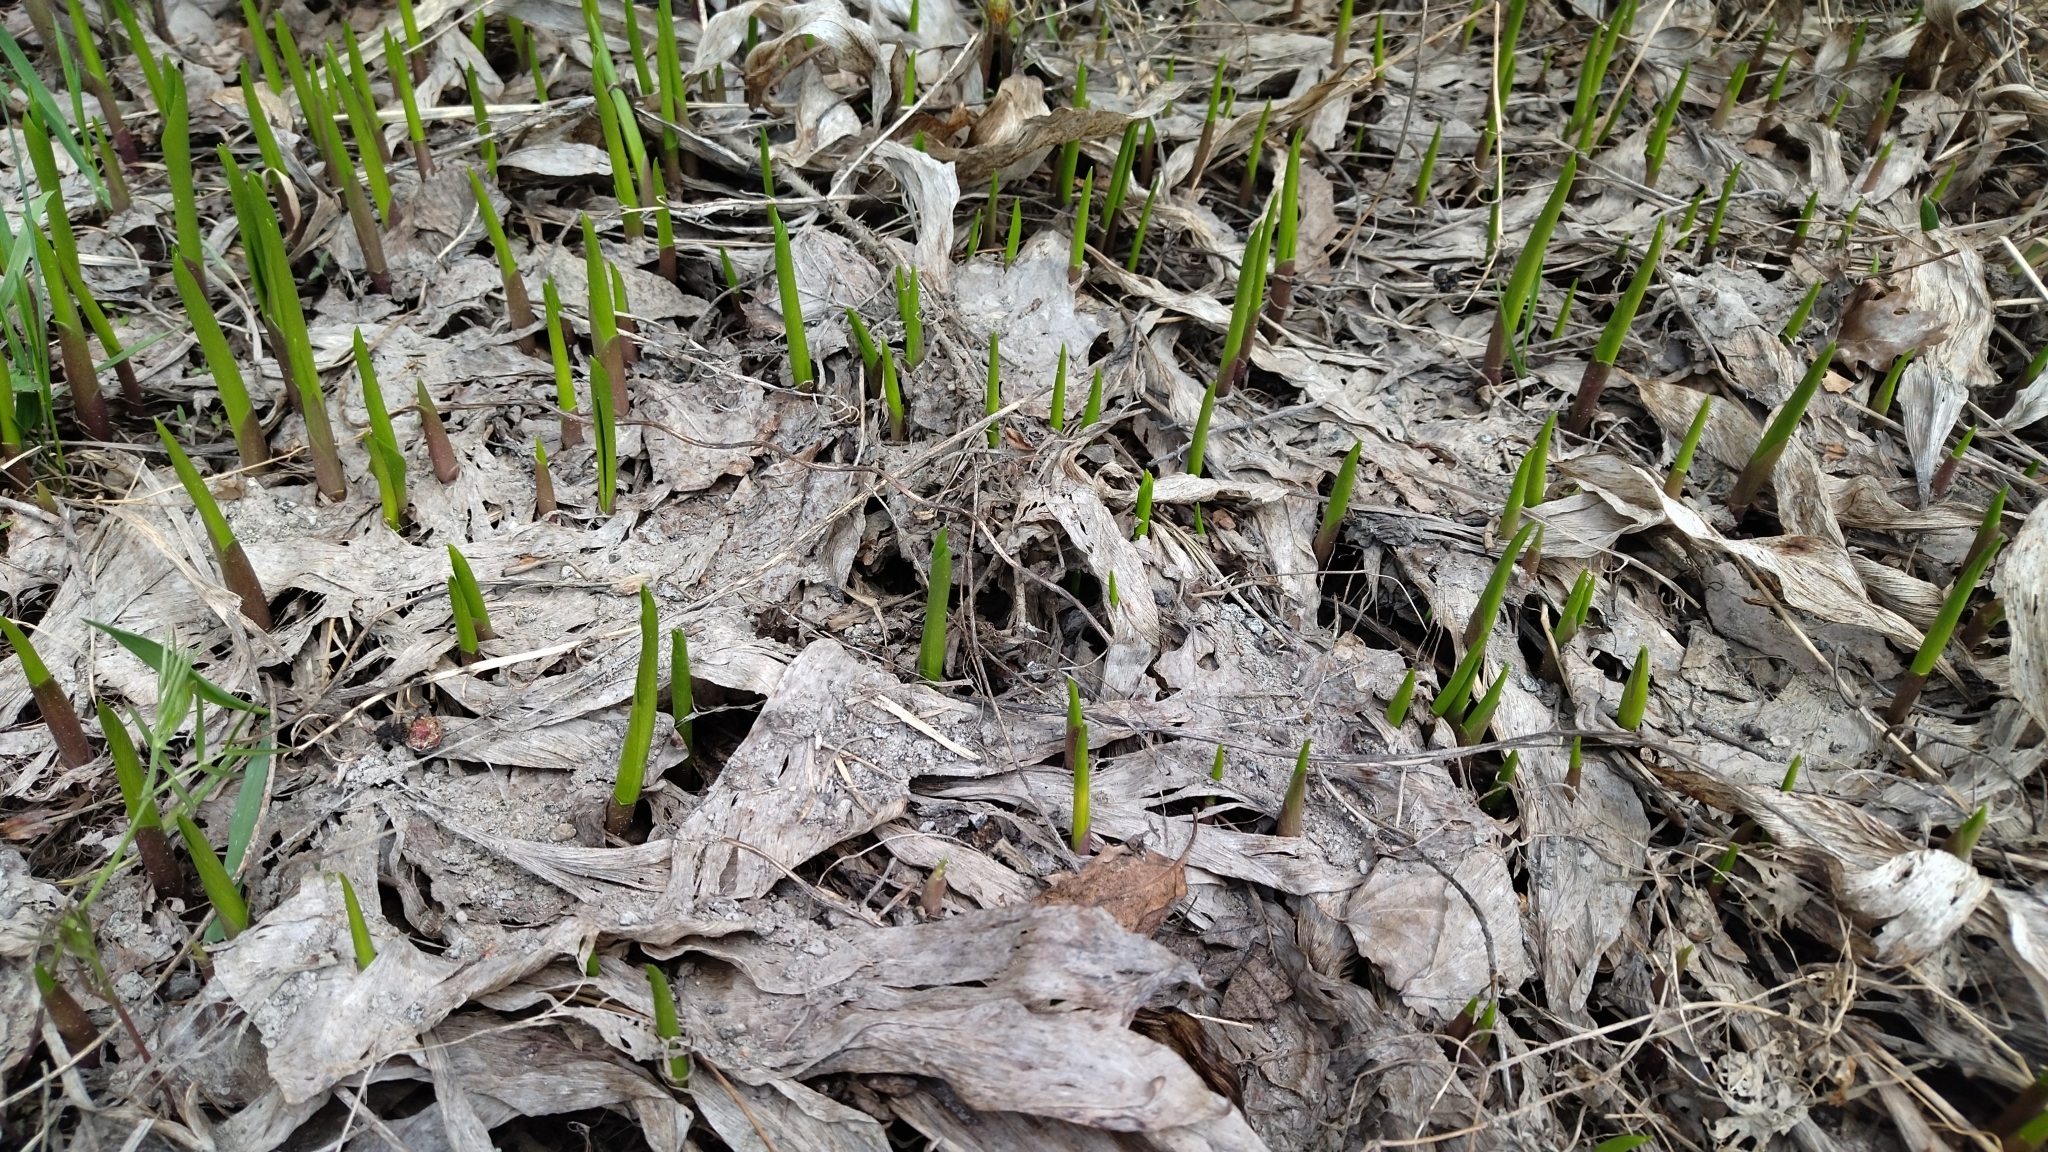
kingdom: Plantae
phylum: Tracheophyta
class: Liliopsida
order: Asparagales
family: Asparagaceae
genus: Convallaria
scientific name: Convallaria majalis
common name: Lily-of-the-valley
